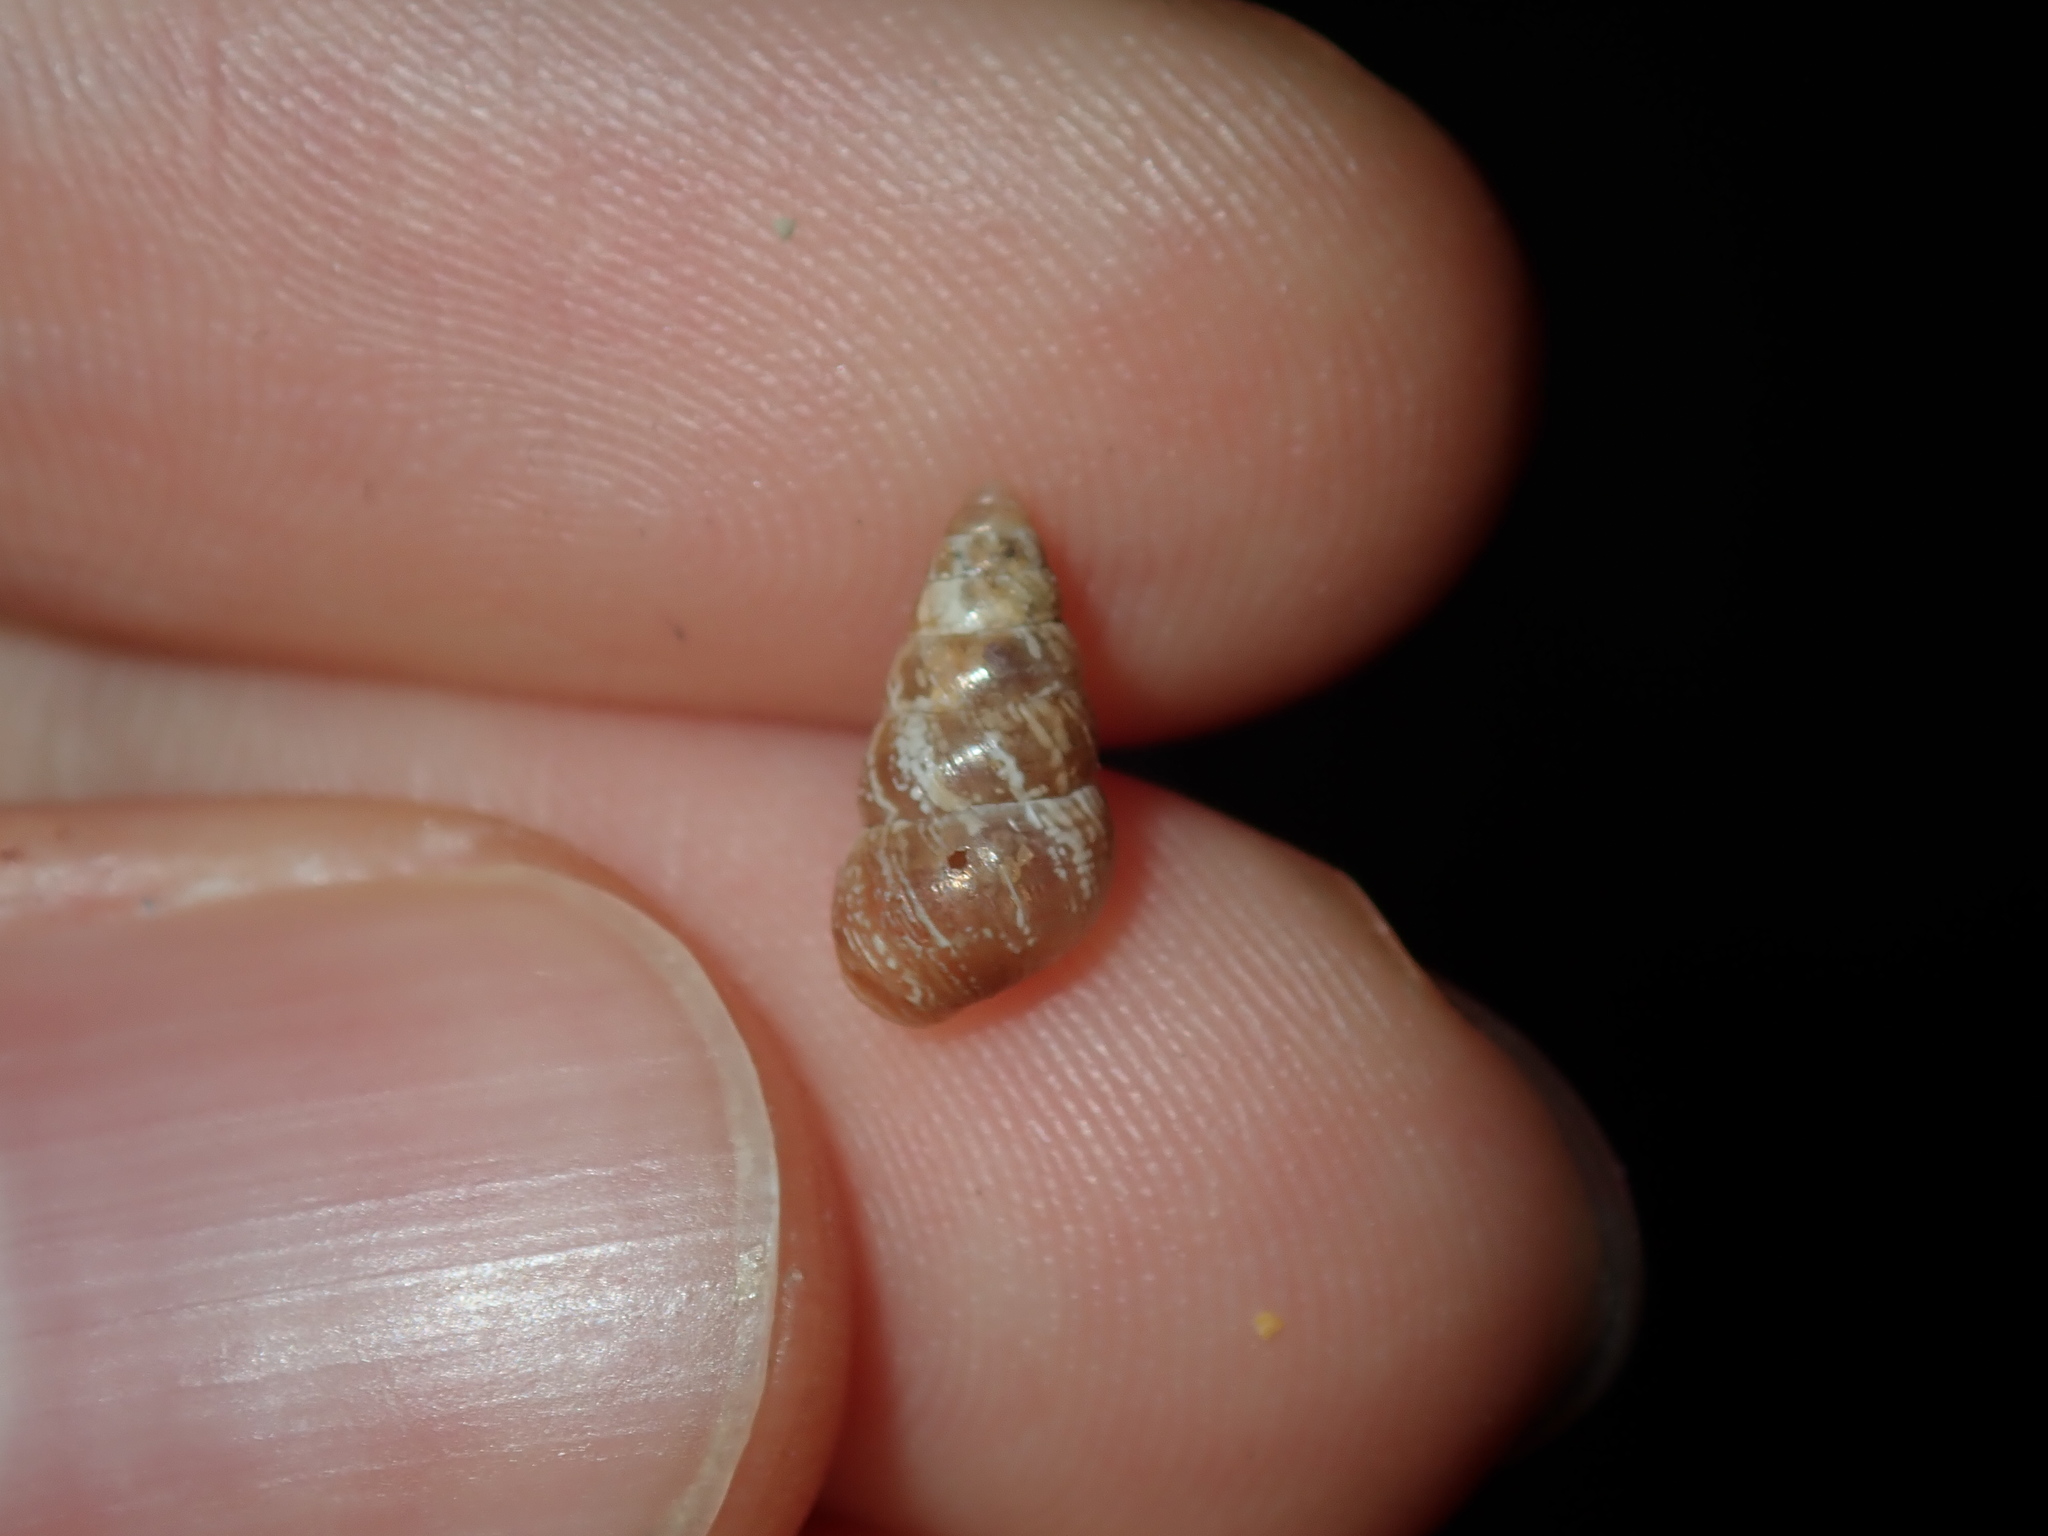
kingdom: Animalia
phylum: Mollusca
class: Gastropoda
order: Stylommatophora
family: Geomitridae
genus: Cochlicella
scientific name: Cochlicella barbara
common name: Potbellied helicellid
